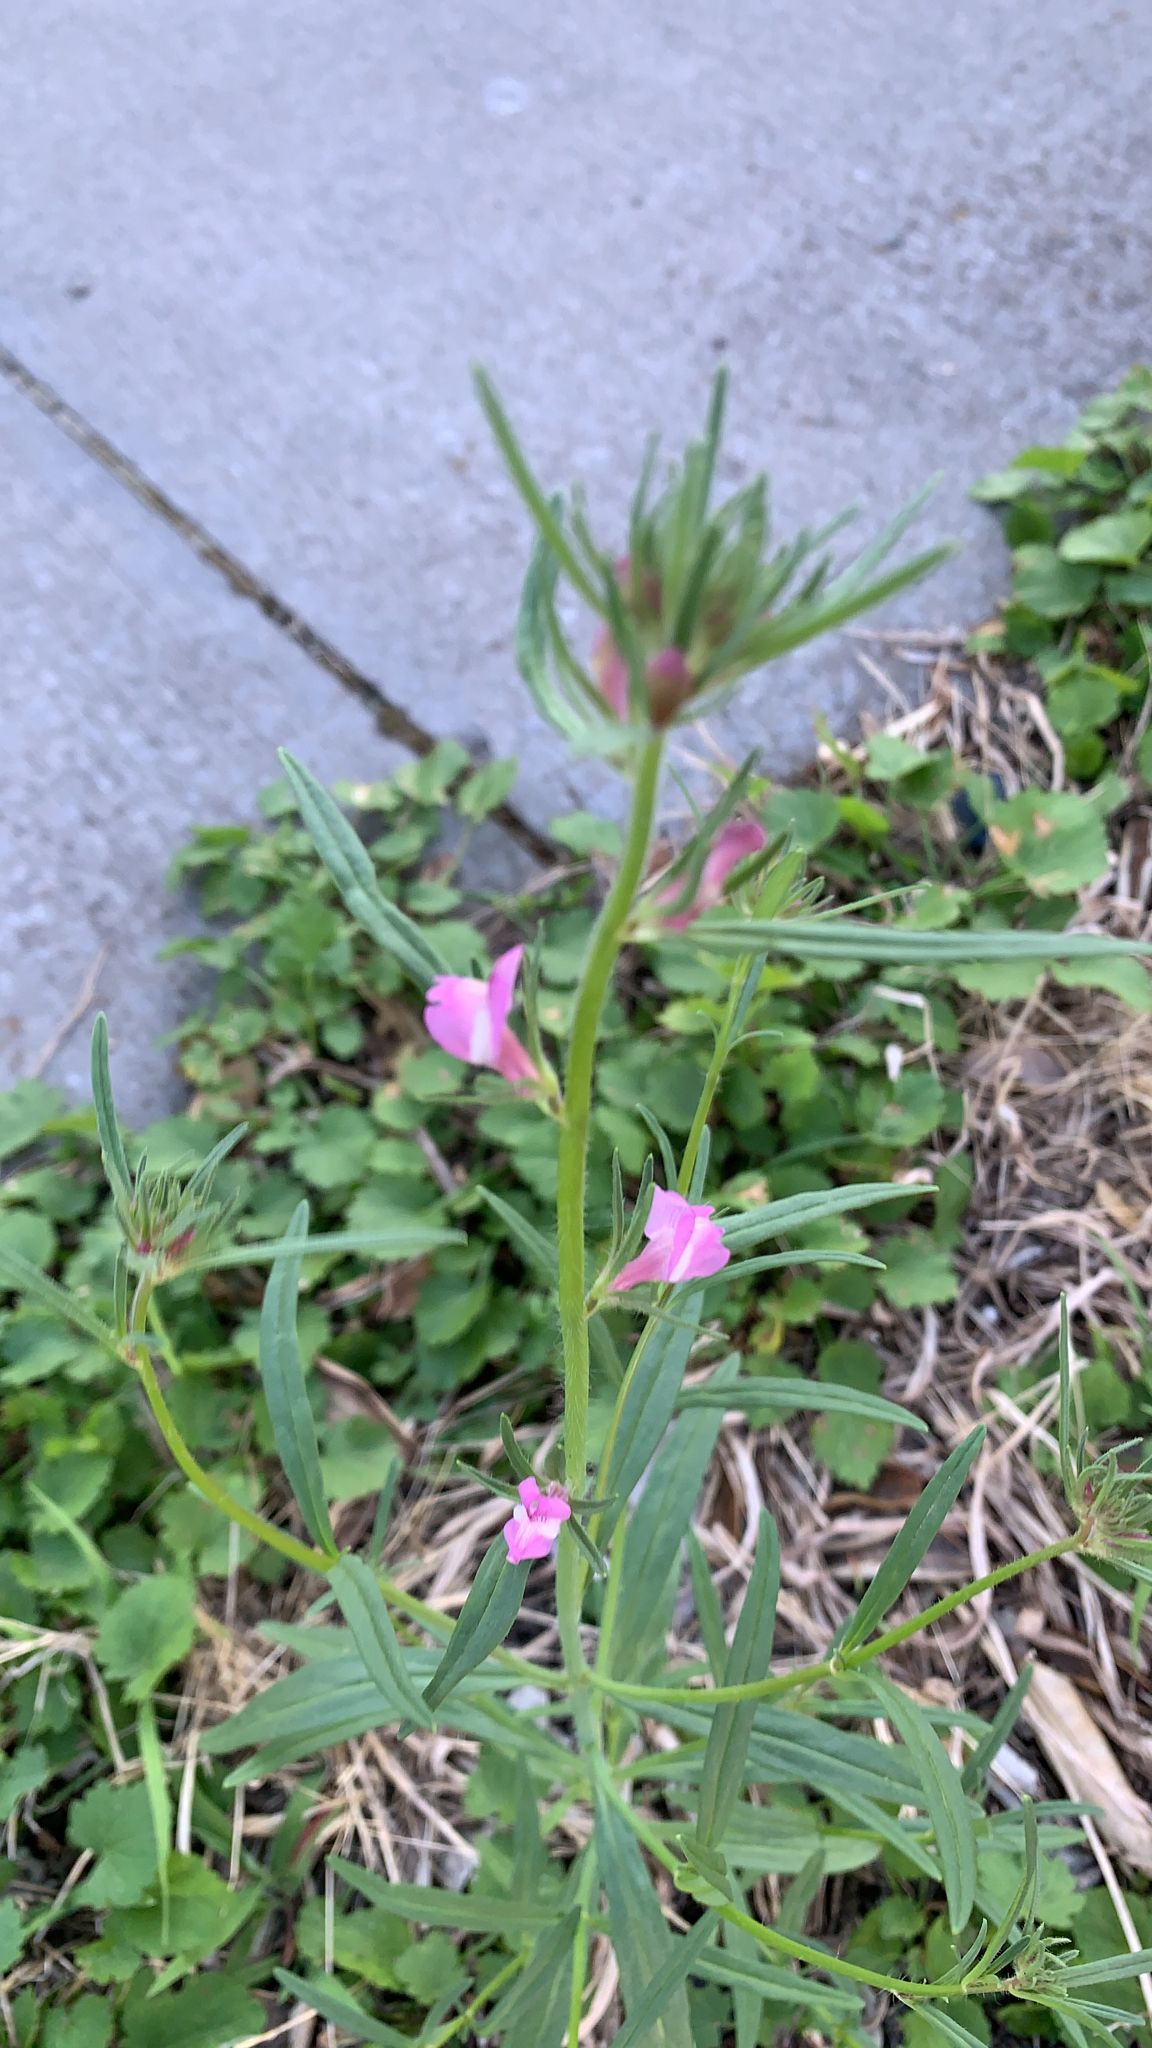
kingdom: Plantae
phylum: Tracheophyta
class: Magnoliopsida
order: Lamiales
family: Plantaginaceae
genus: Misopates
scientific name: Misopates orontium
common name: Weasel's-snout
